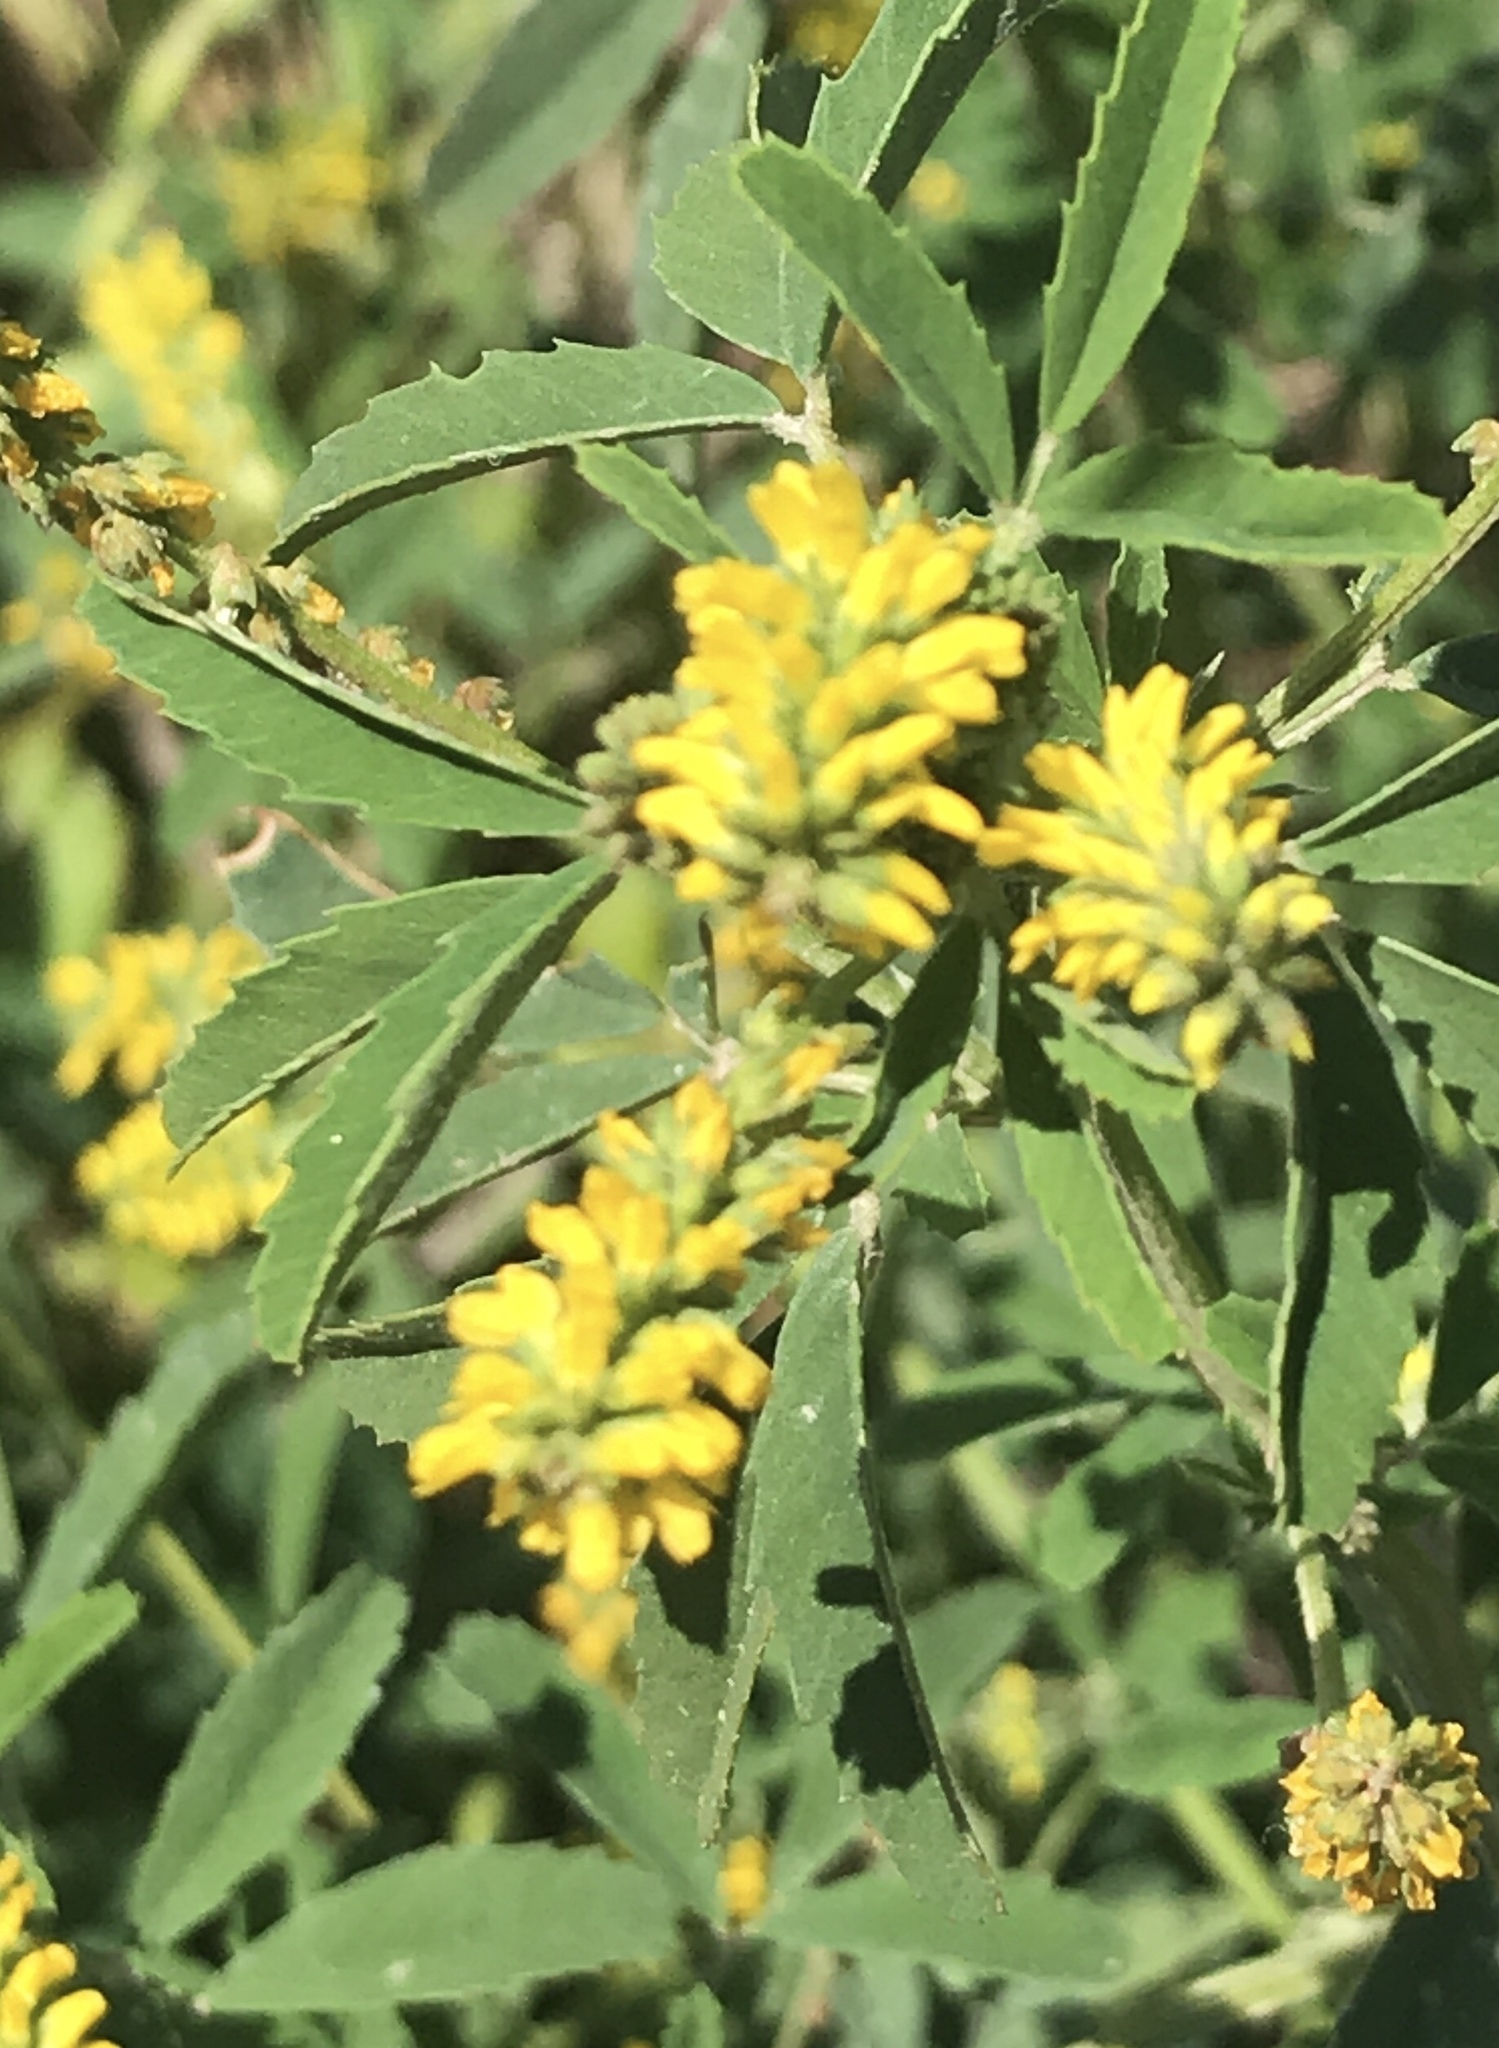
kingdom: Plantae
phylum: Tracheophyta
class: Magnoliopsida
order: Fabales
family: Fabaceae
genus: Melilotus
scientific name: Melilotus indicus
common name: Small melilot
